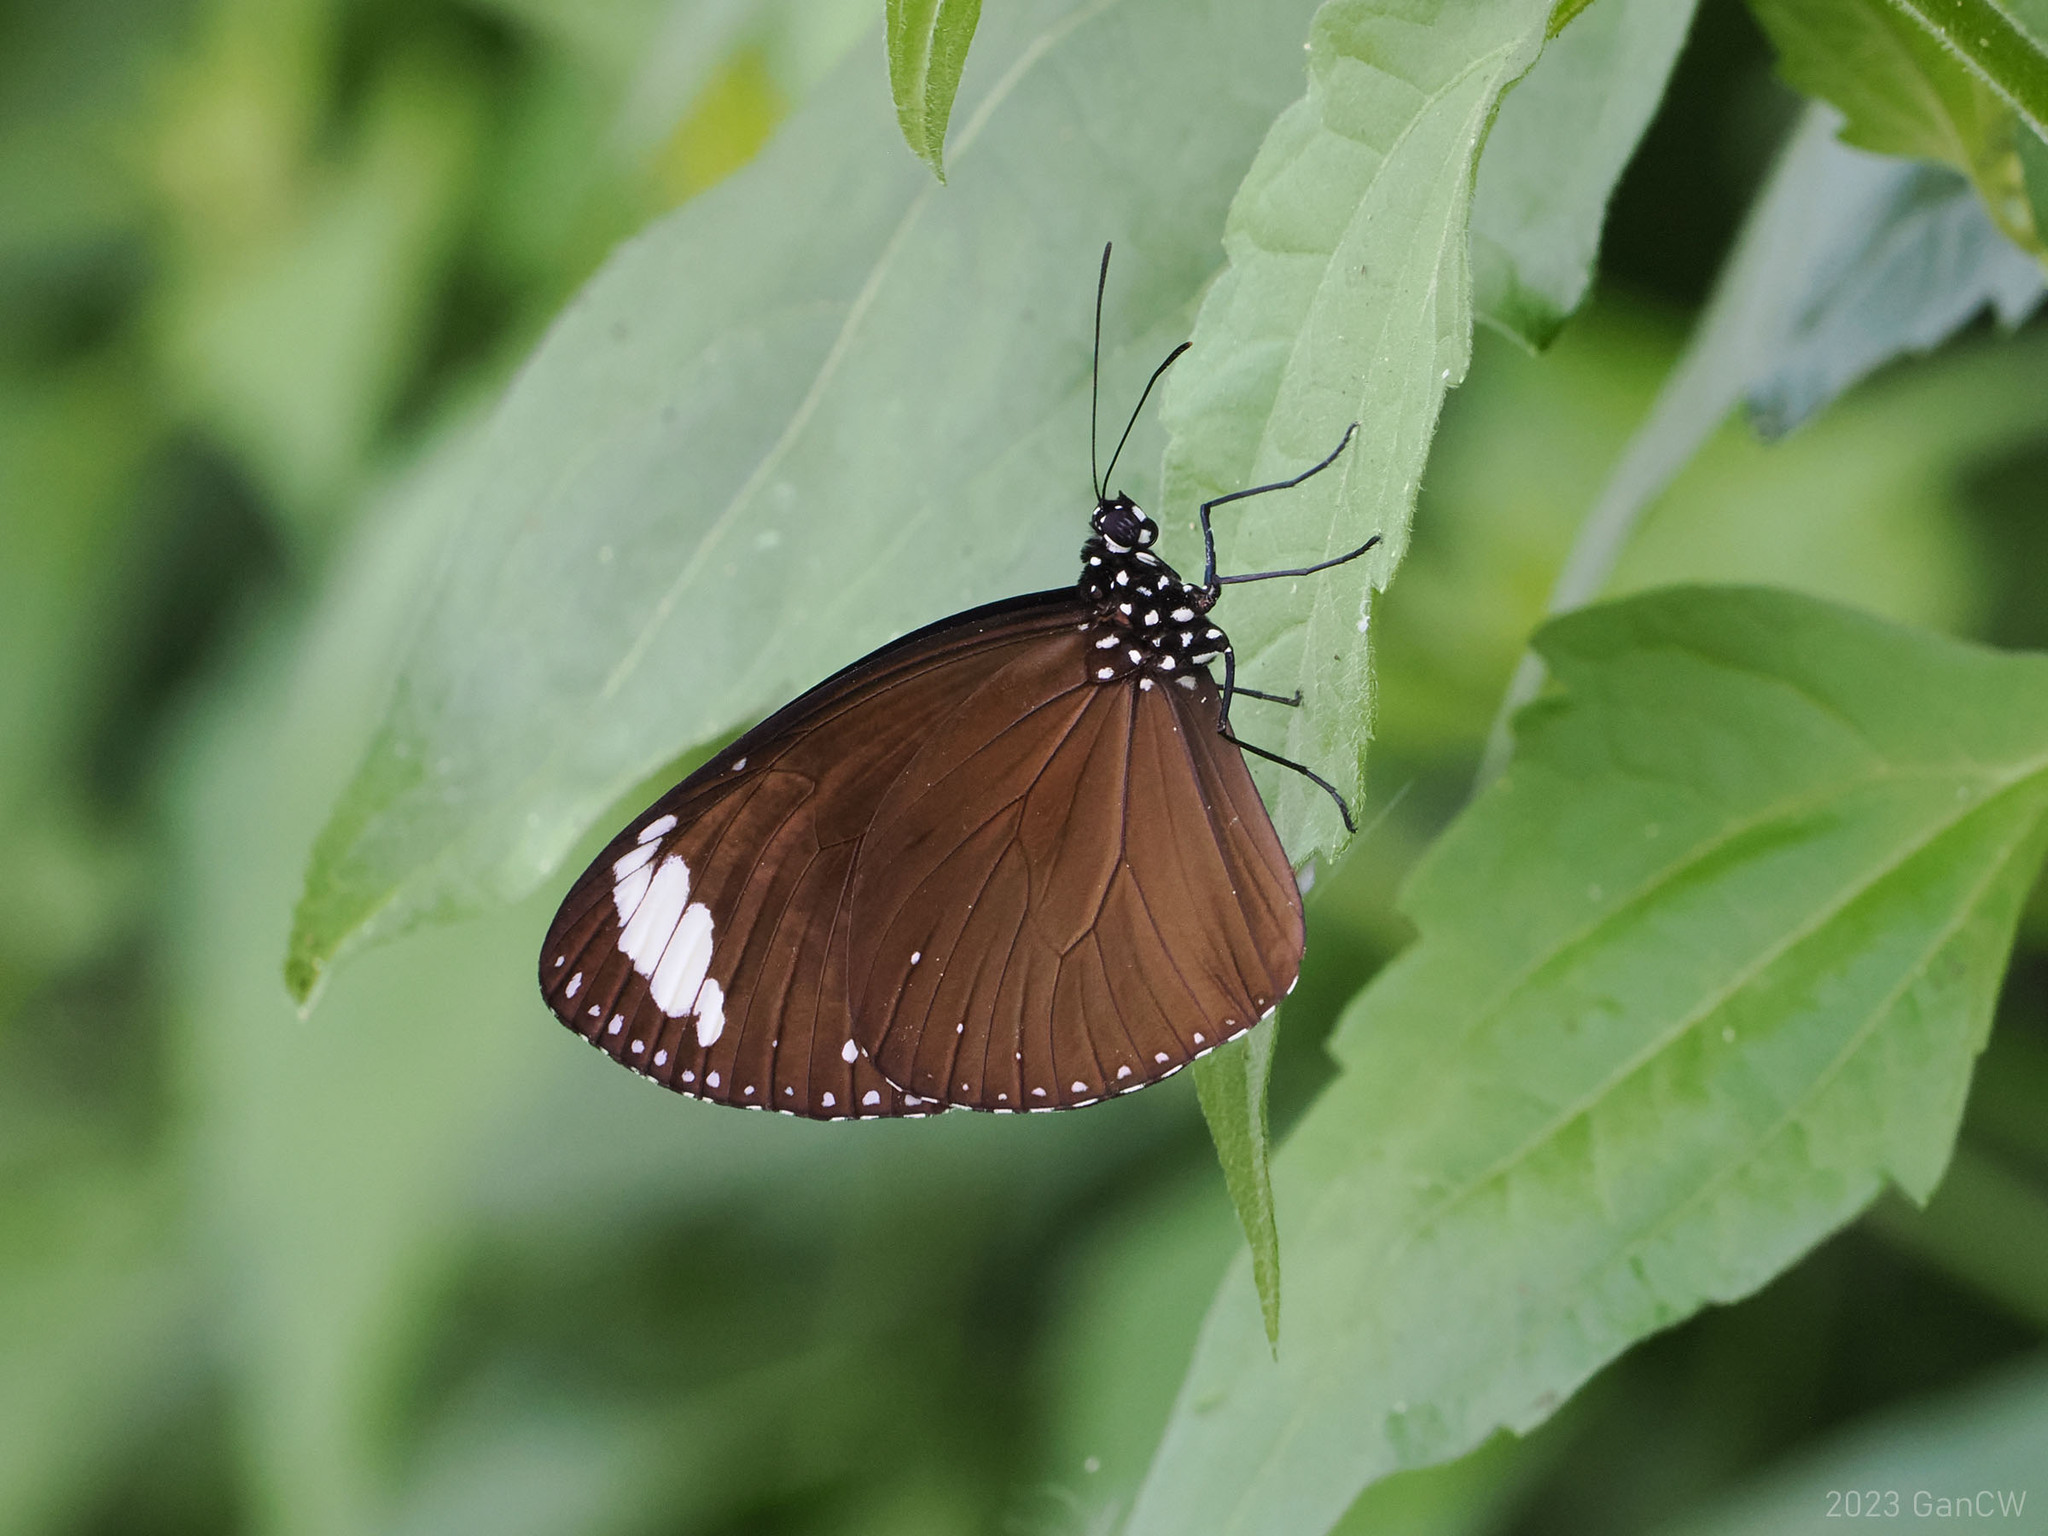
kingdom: Animalia
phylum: Arthropoda
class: Insecta
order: Lepidoptera
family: Nymphalidae
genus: Euploea
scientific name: Euploea tulliolus
